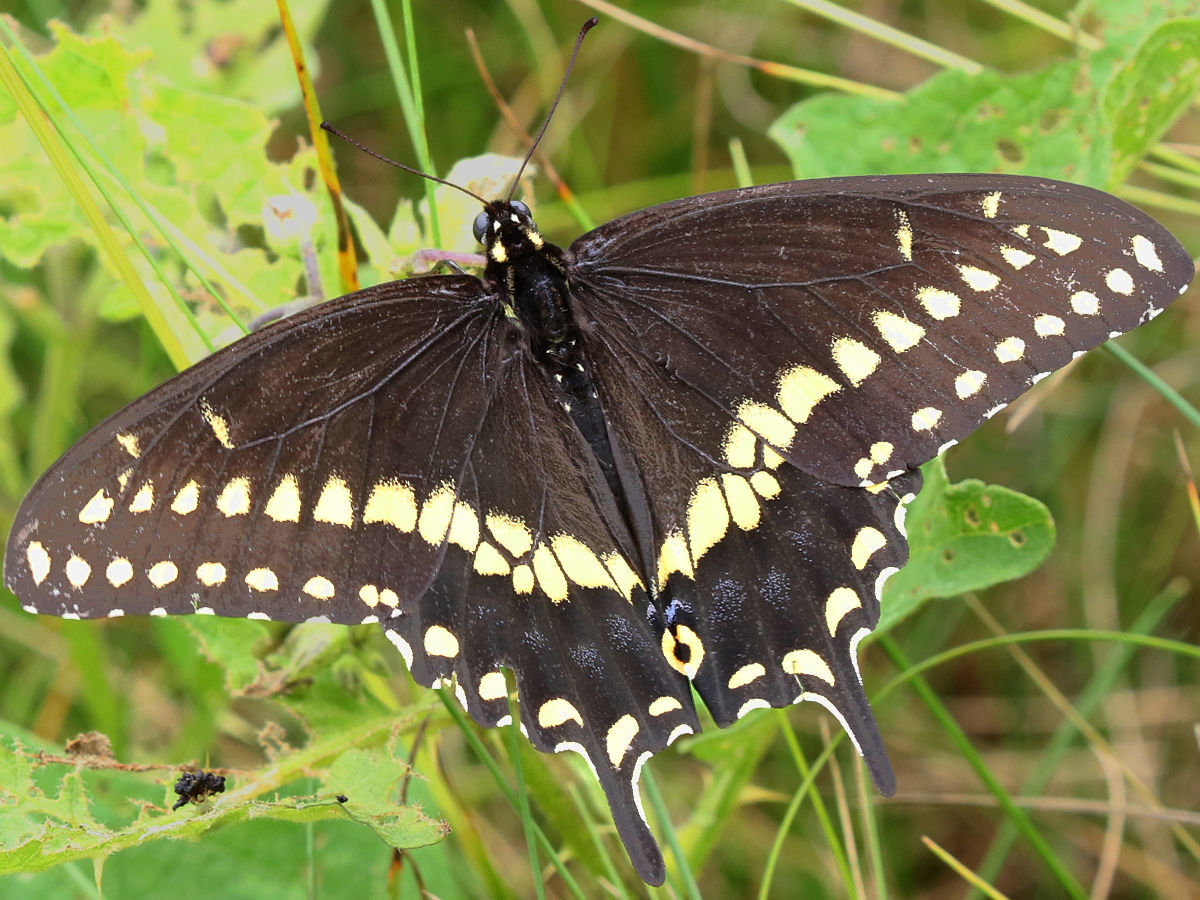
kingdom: Animalia
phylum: Arthropoda
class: Insecta
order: Lepidoptera
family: Papilionidae
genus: Papilio
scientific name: Papilio polyxenes
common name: Black swallowtail
